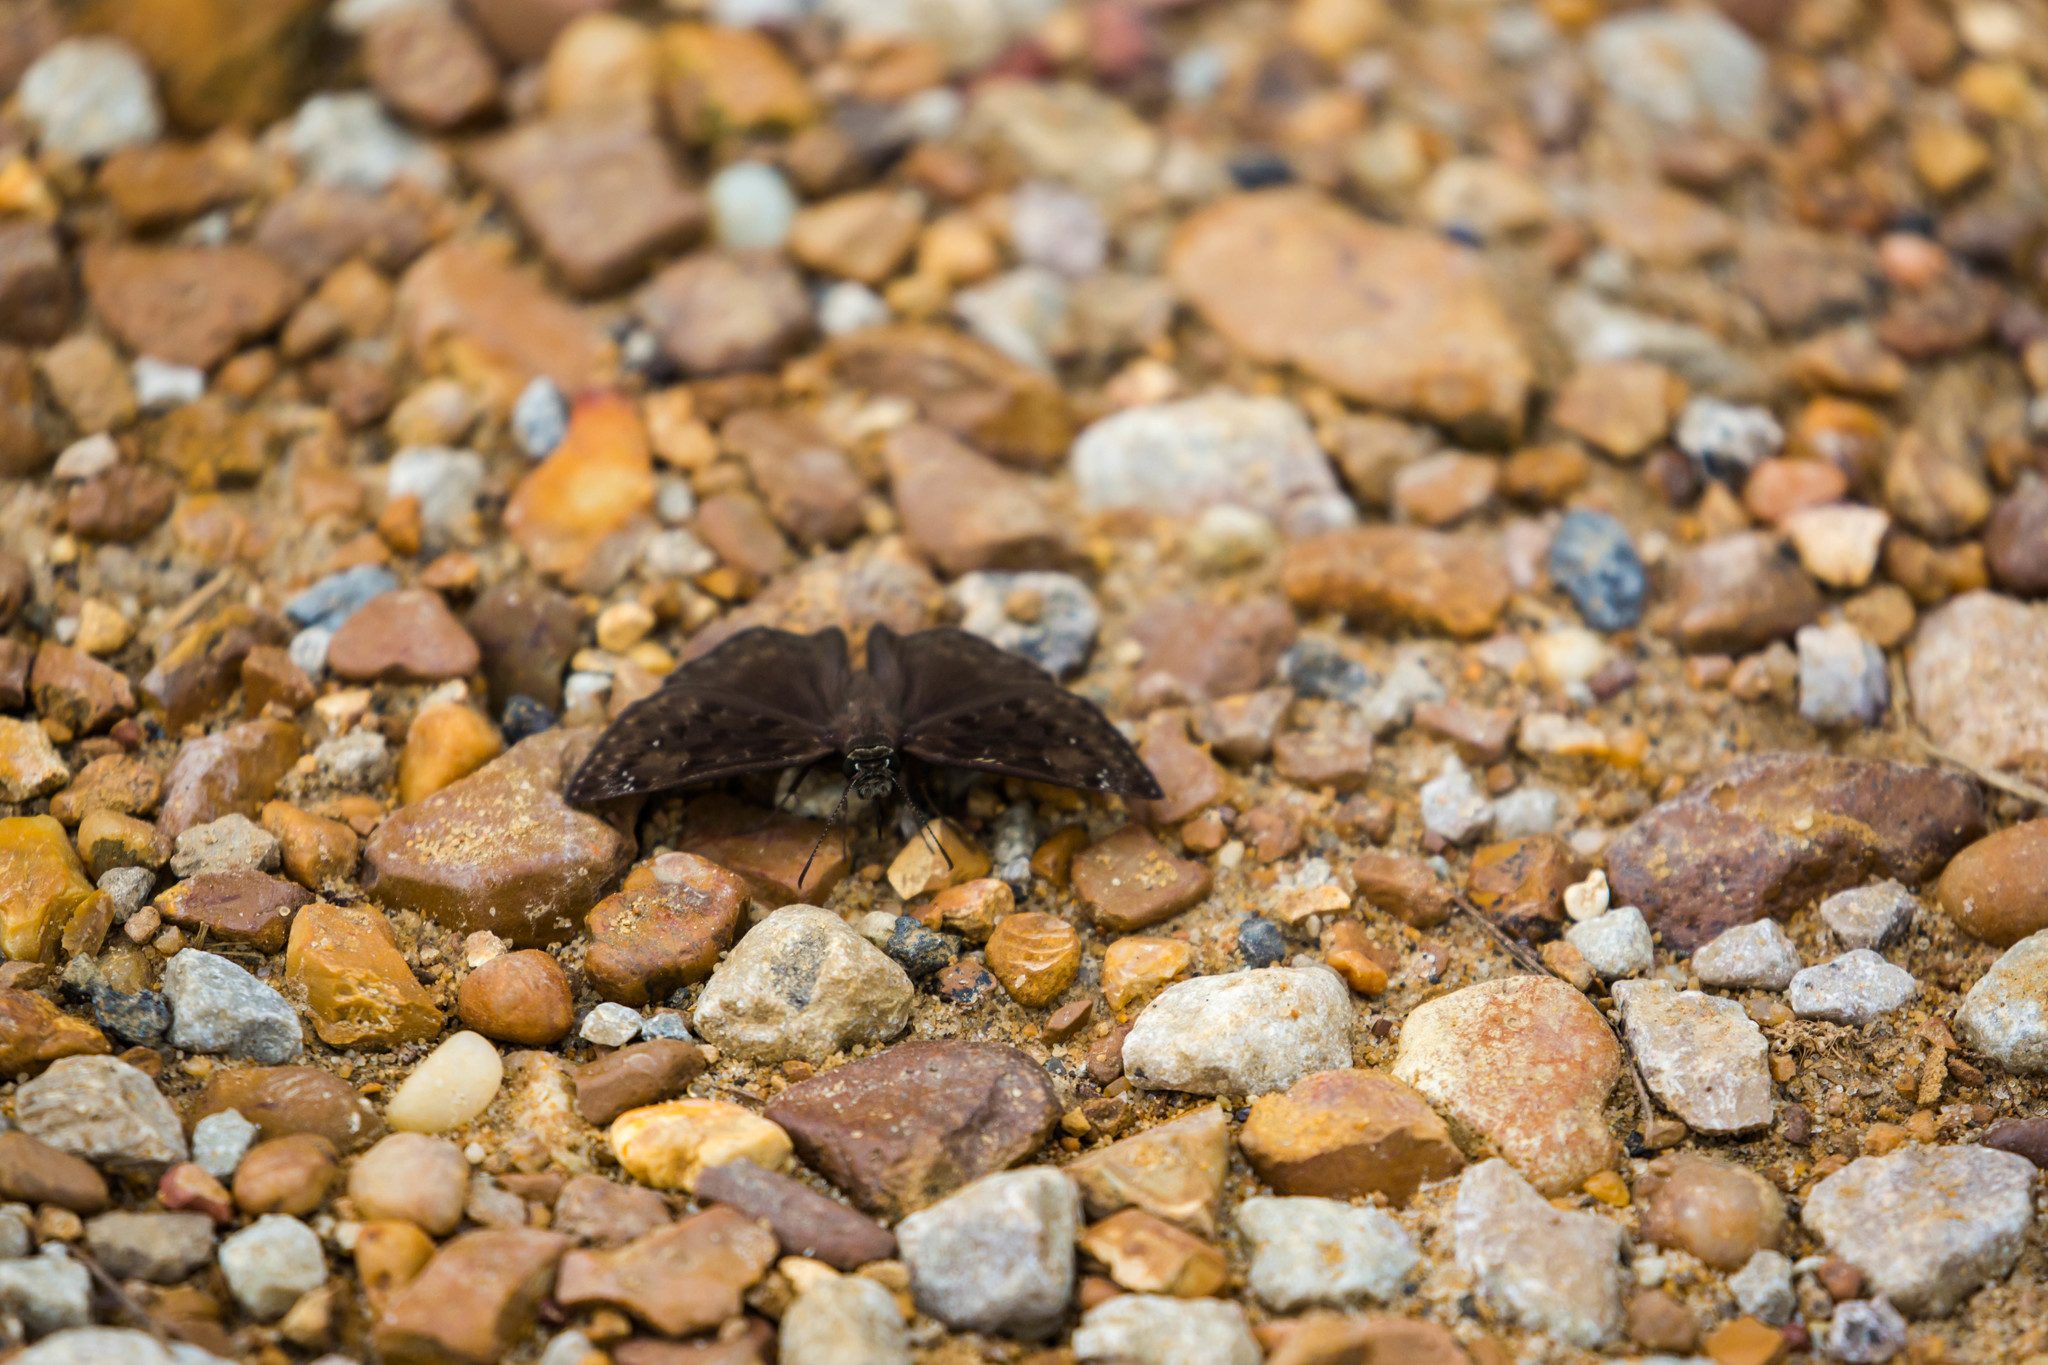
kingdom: Animalia
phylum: Arthropoda
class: Insecta
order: Lepidoptera
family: Hesperiidae
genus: Erynnis
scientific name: Erynnis horatius
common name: Horace's duskywing
